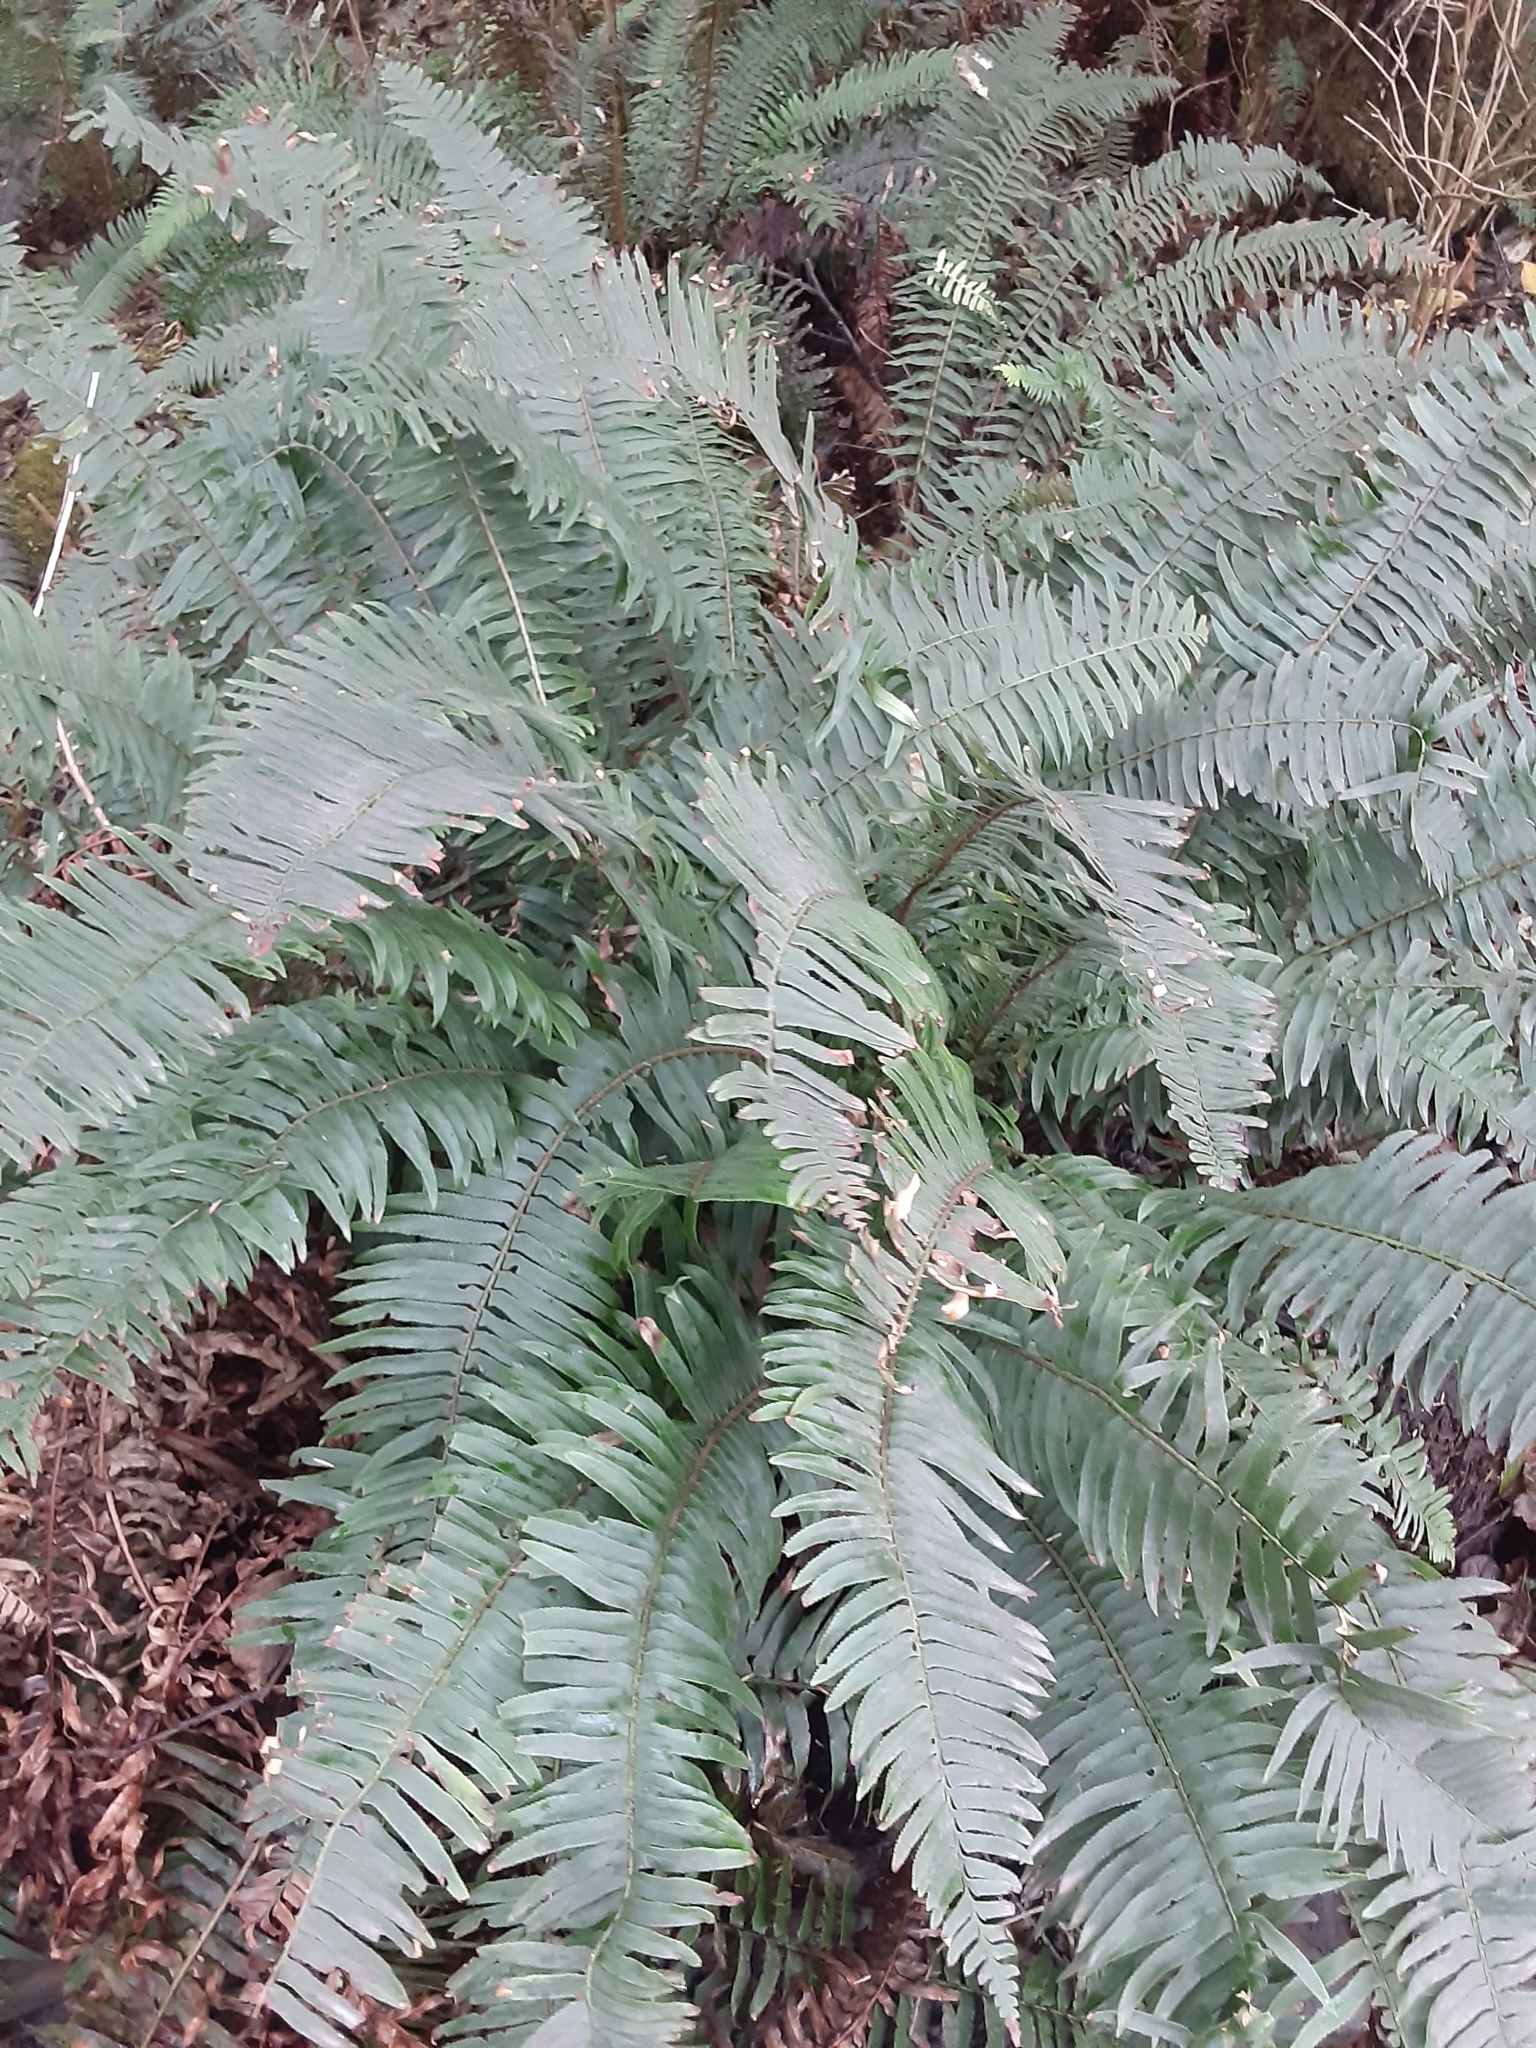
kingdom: Plantae
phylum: Tracheophyta
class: Polypodiopsida
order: Polypodiales
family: Dryopteridaceae
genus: Polystichum
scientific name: Polystichum munitum
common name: Western sword-fern
